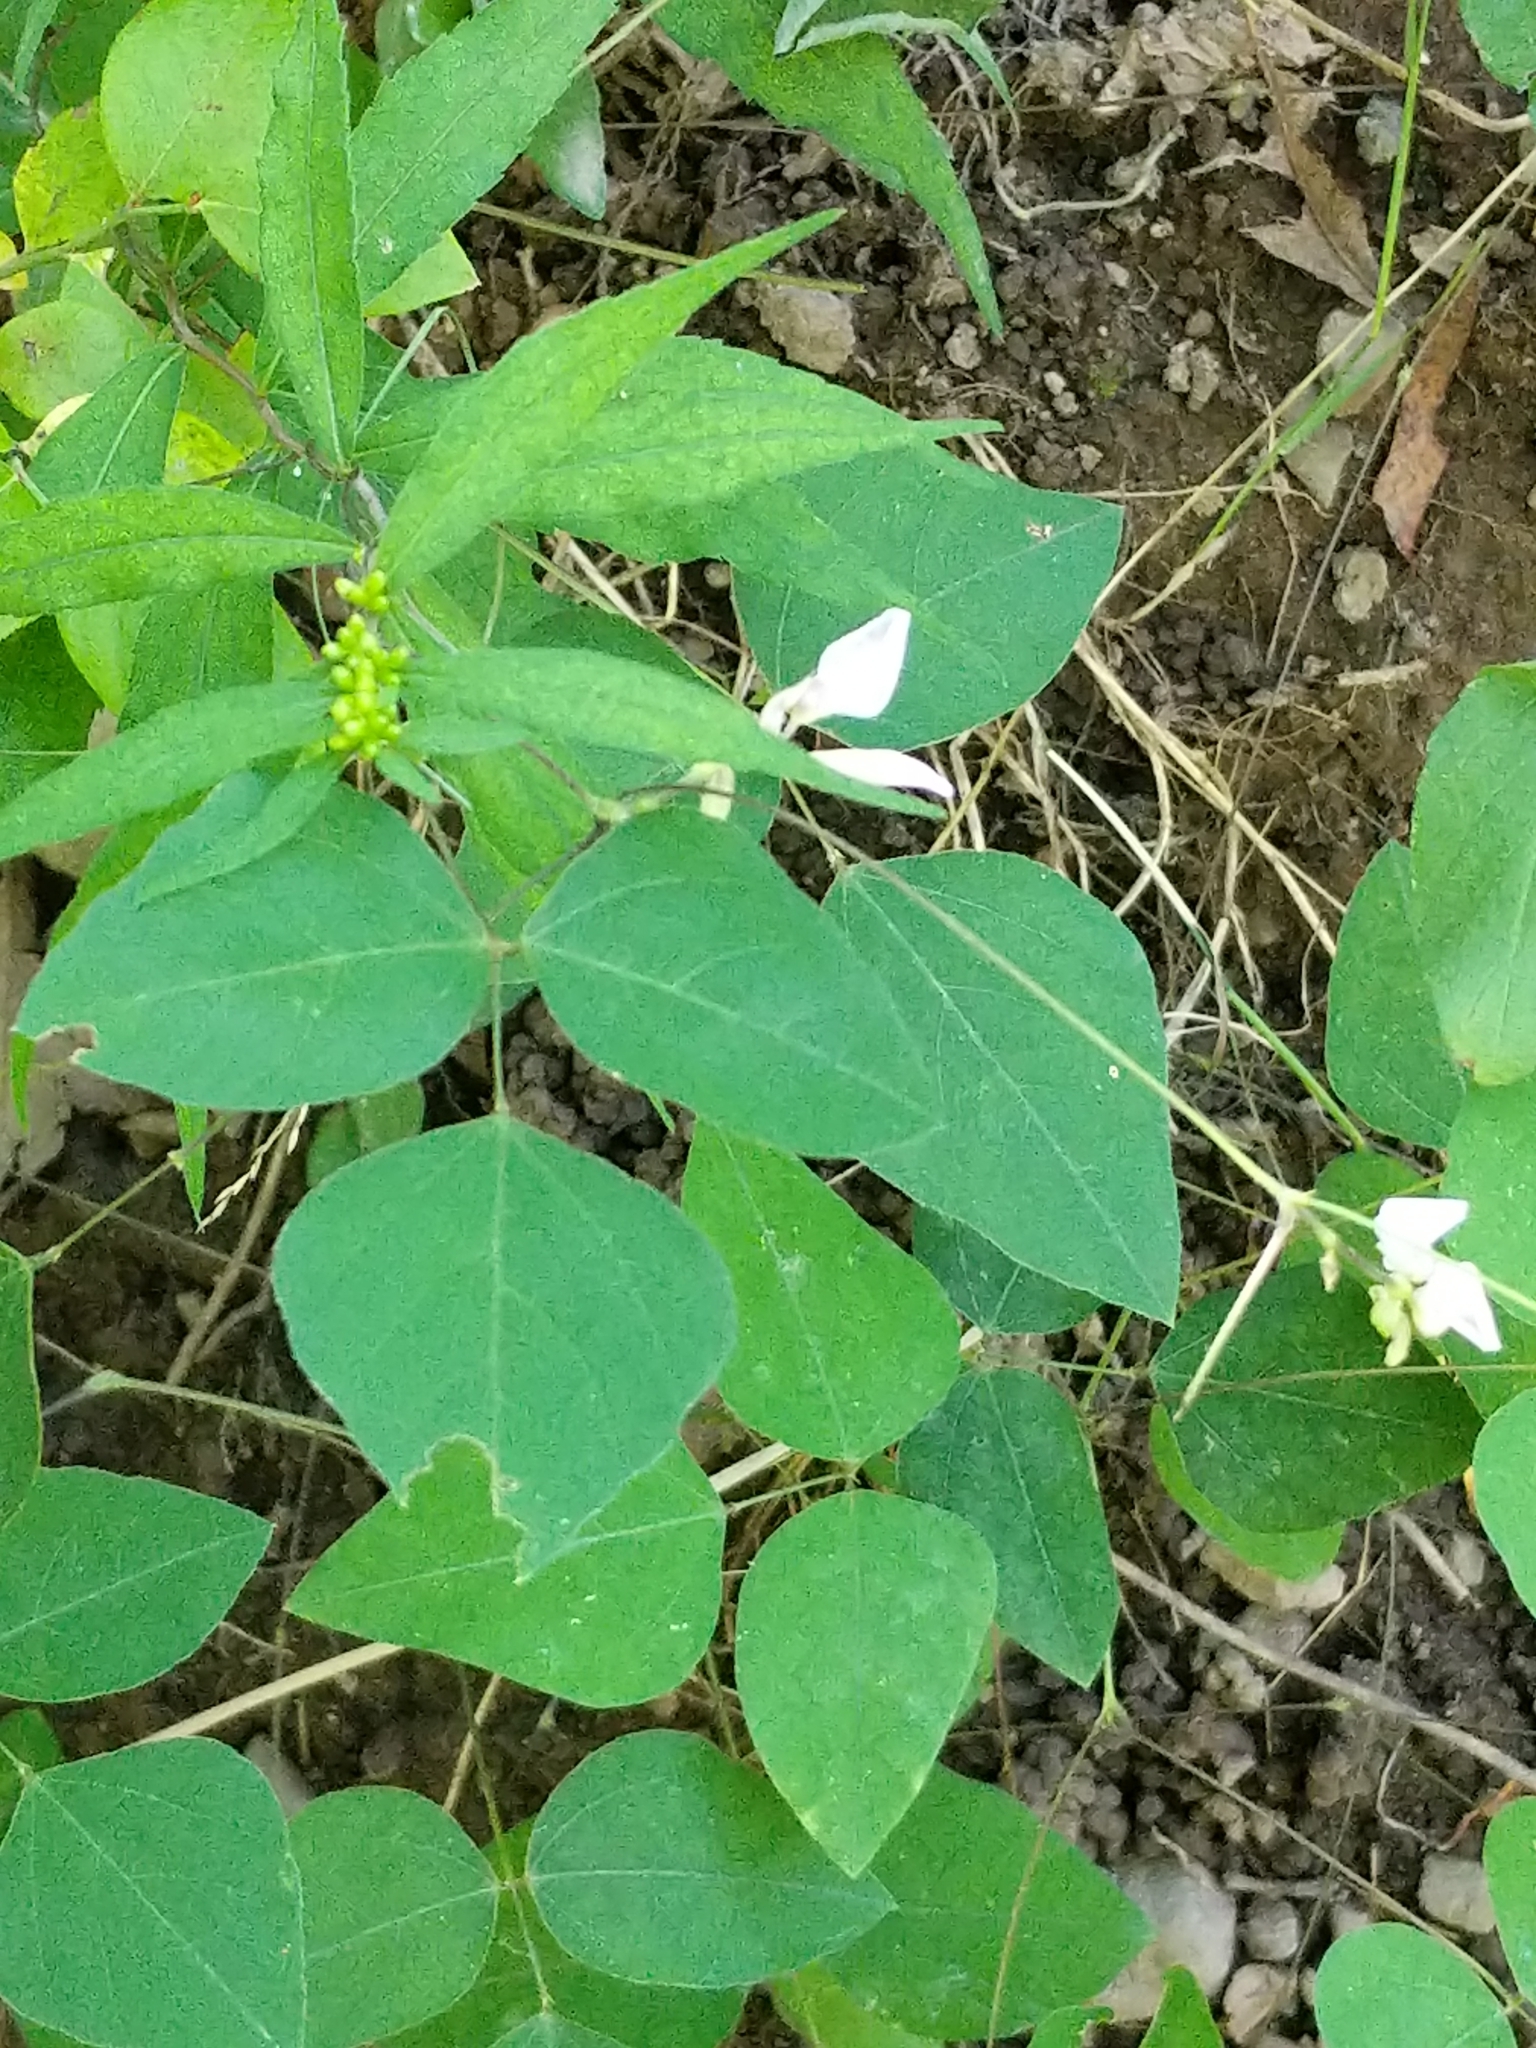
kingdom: Plantae
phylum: Tracheophyta
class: Magnoliopsida
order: Fabales
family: Fabaceae
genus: Amphicarpaea
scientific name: Amphicarpaea bracteata
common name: American hog peanut
